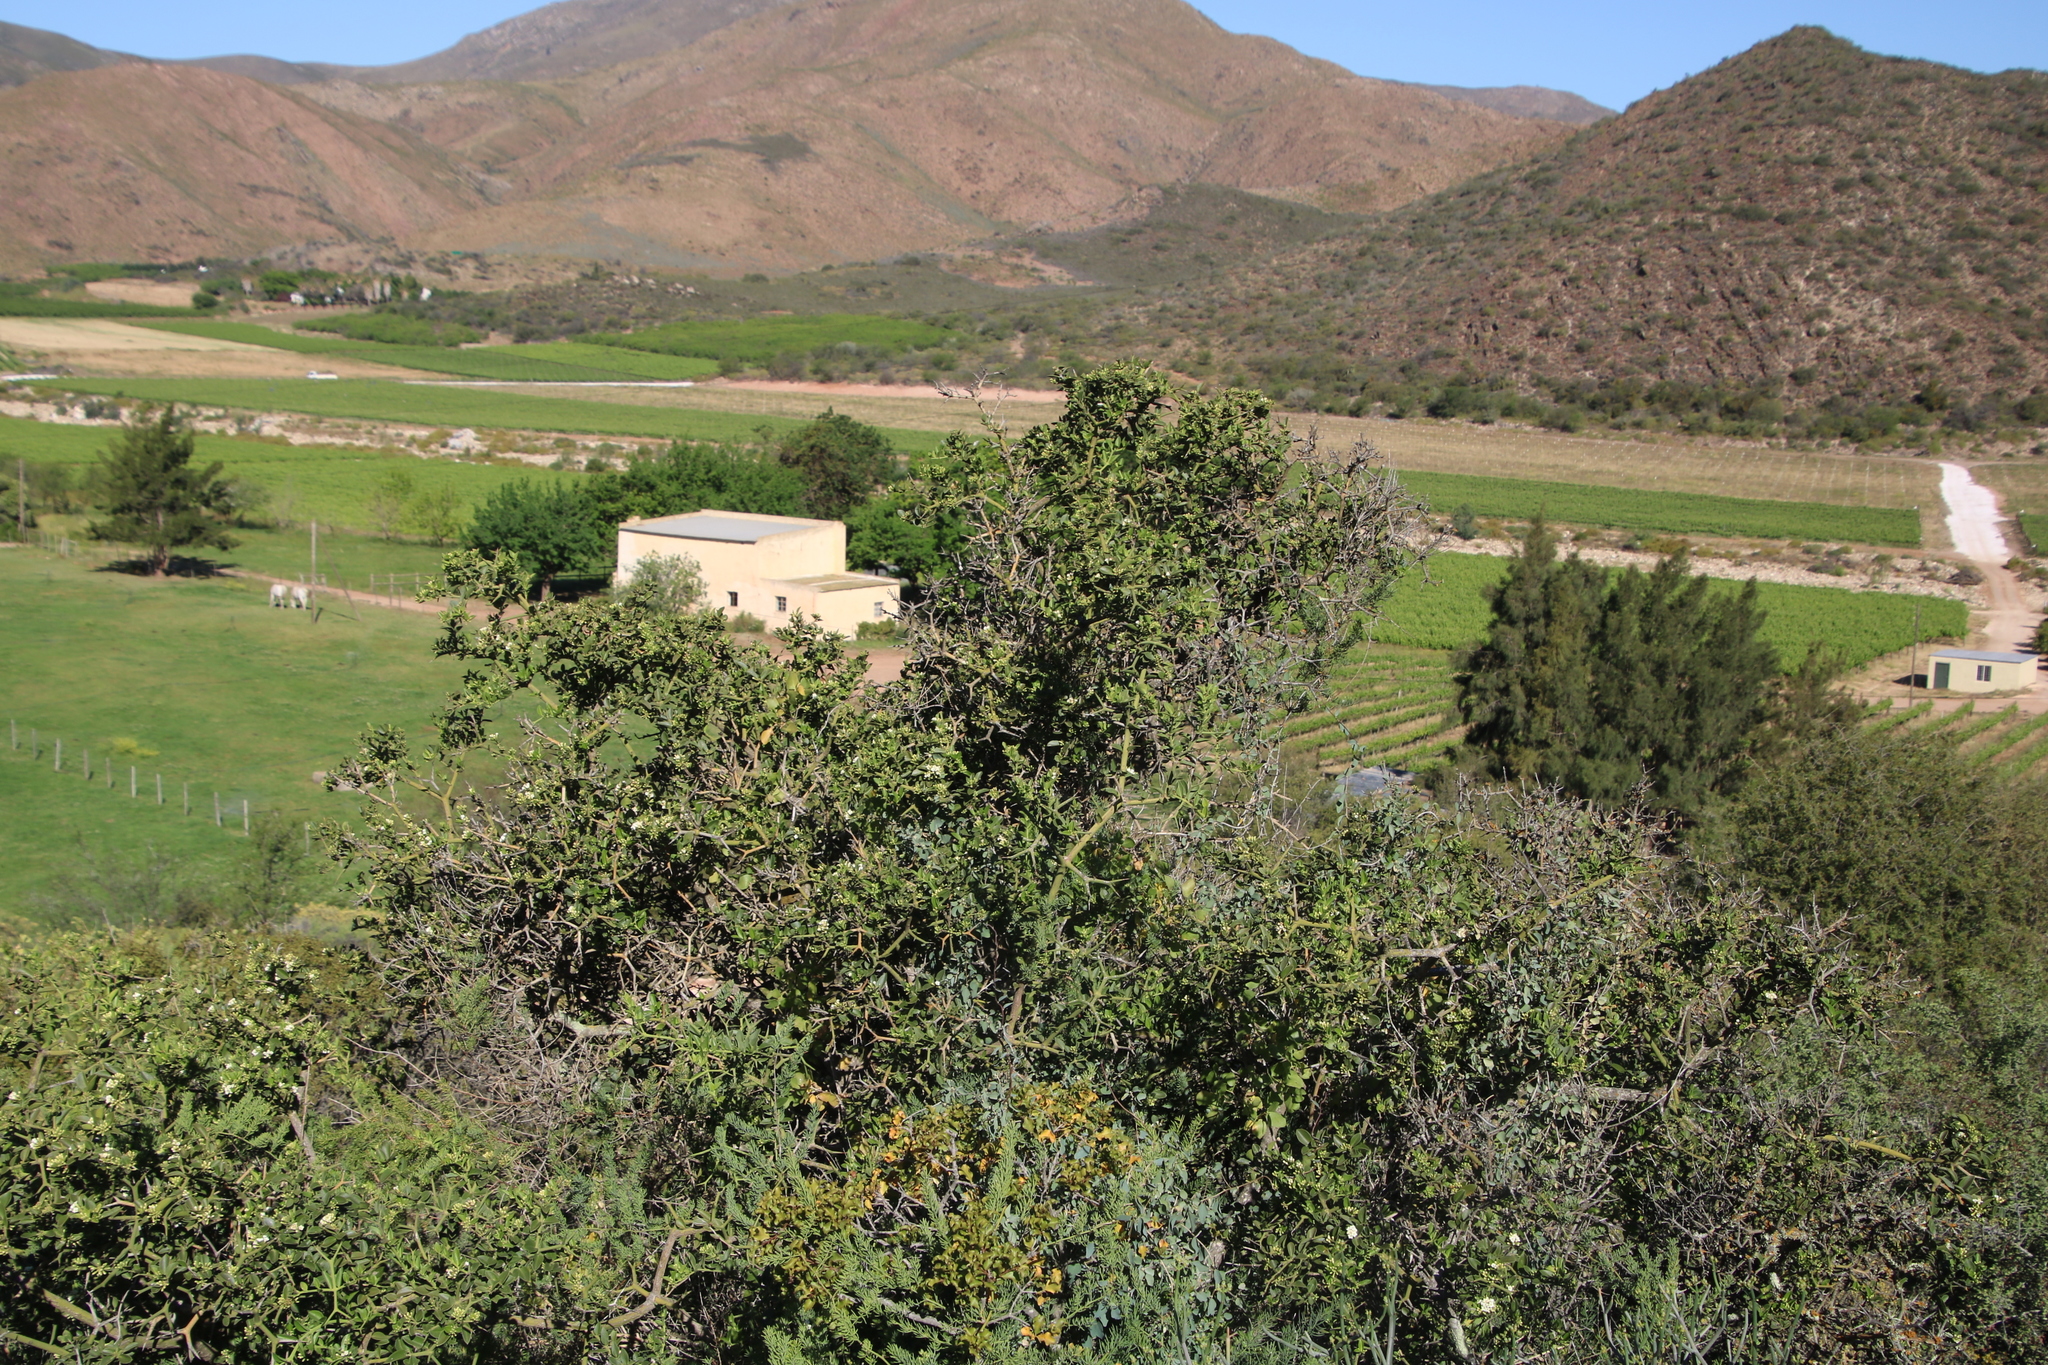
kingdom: Plantae
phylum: Tracheophyta
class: Magnoliopsida
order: Gentianales
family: Apocynaceae
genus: Carissa
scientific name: Carissa haematocarpa
